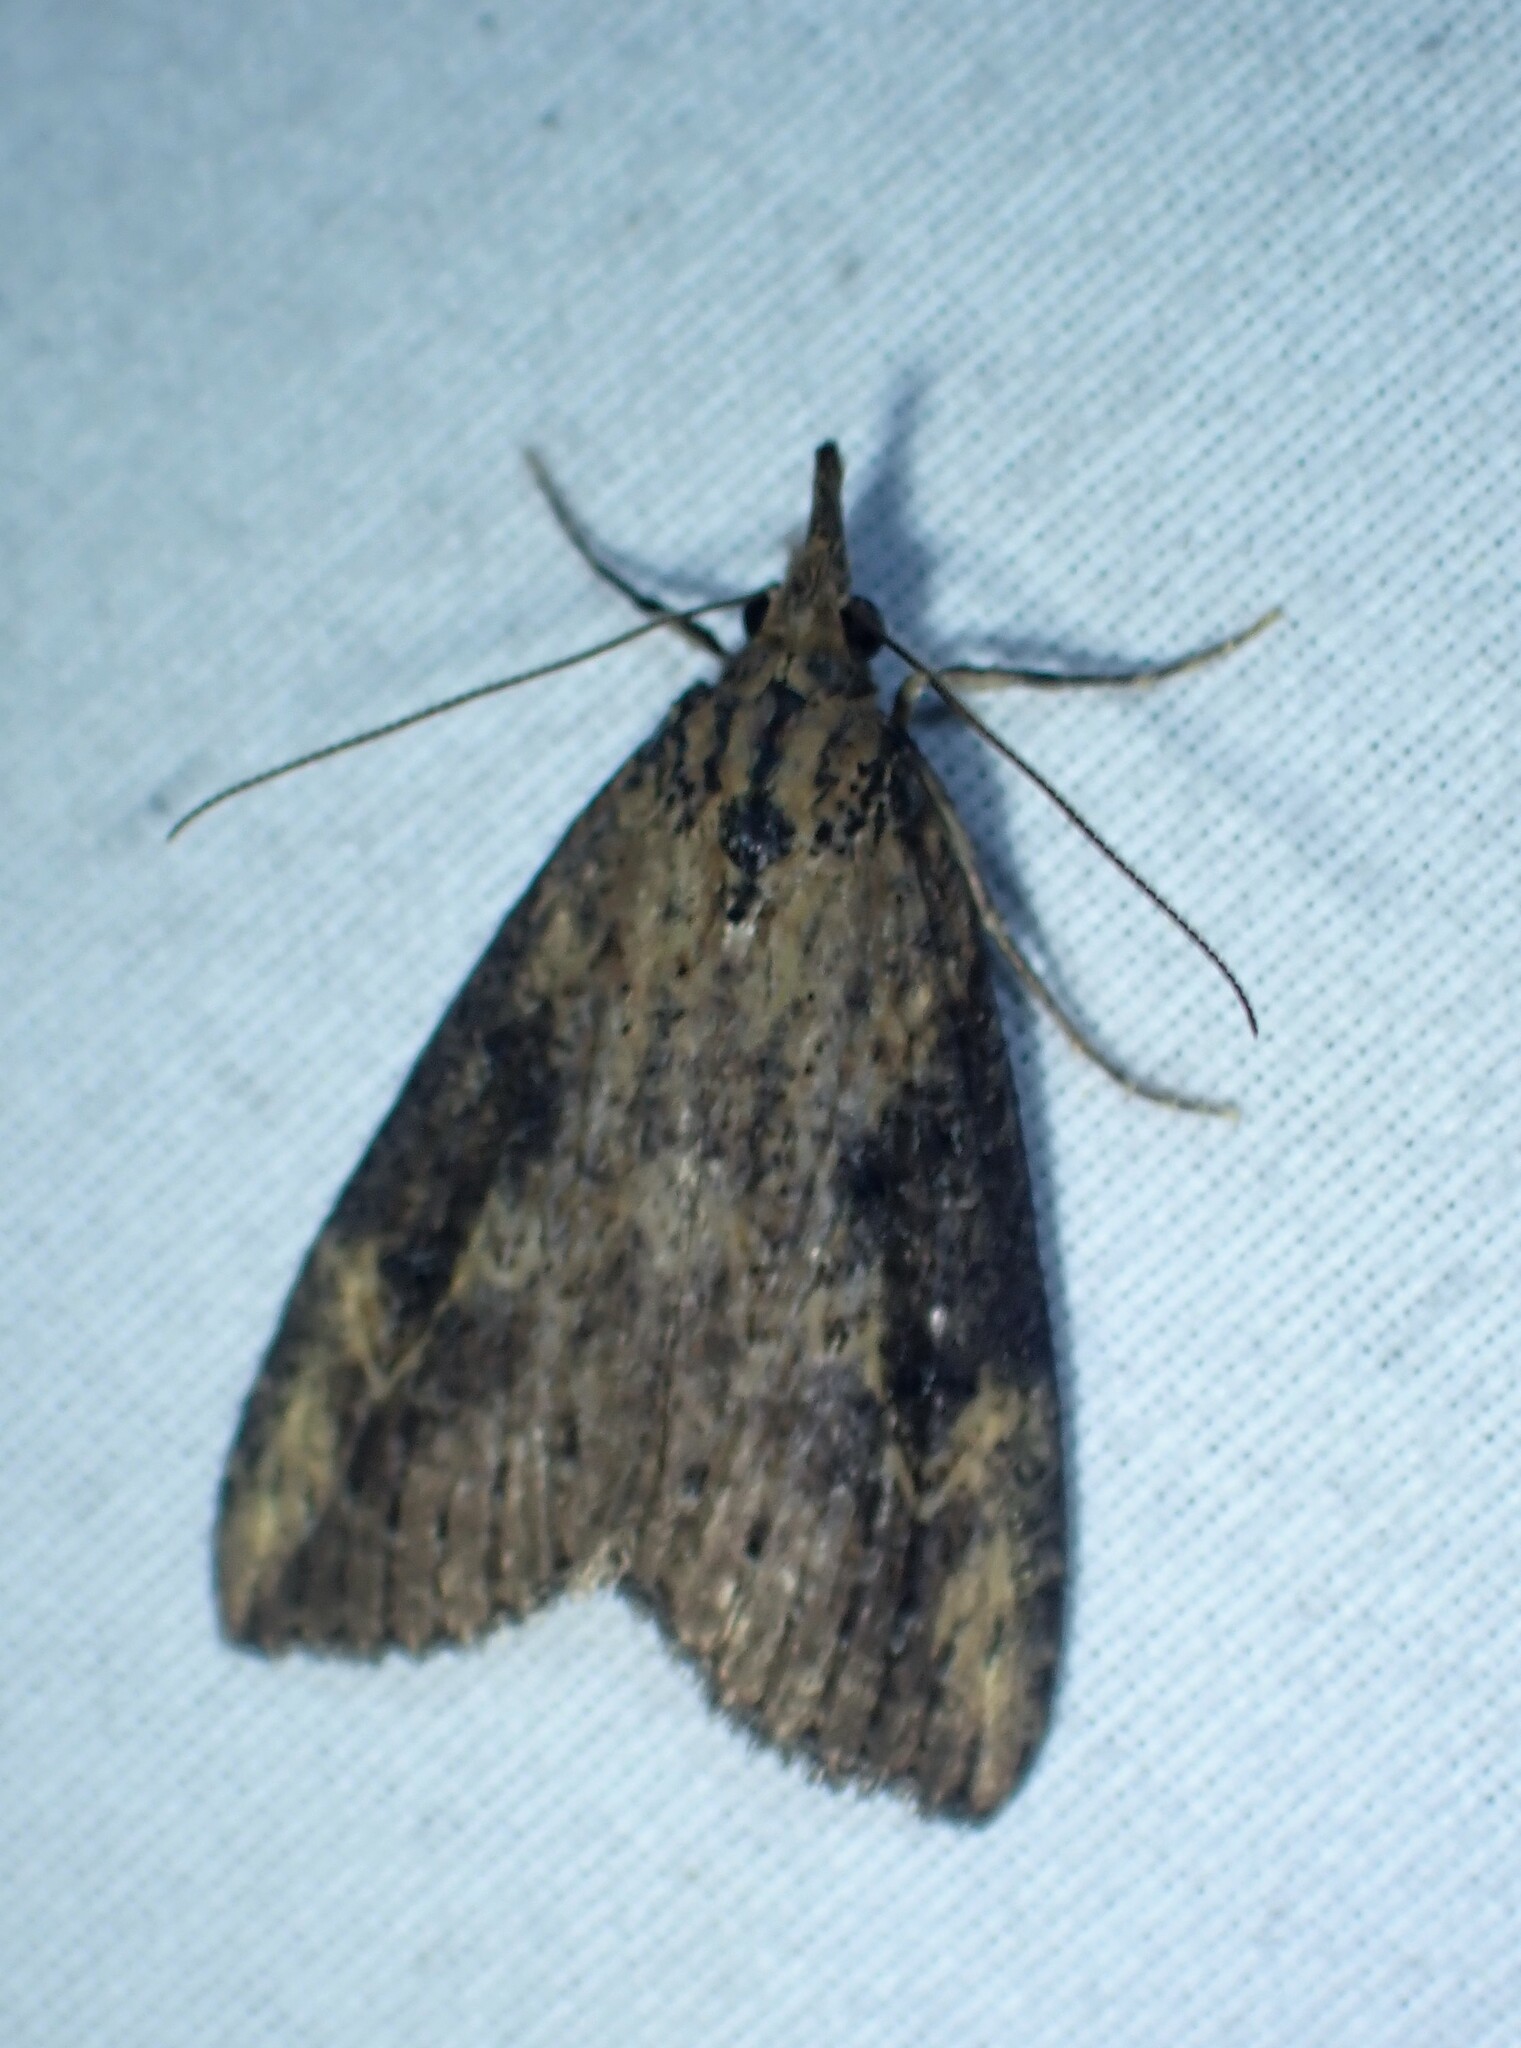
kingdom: Animalia
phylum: Arthropoda
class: Insecta
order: Lepidoptera
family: Erebidae
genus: Hypena
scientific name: Hypena humuli
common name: Hop vine snout
